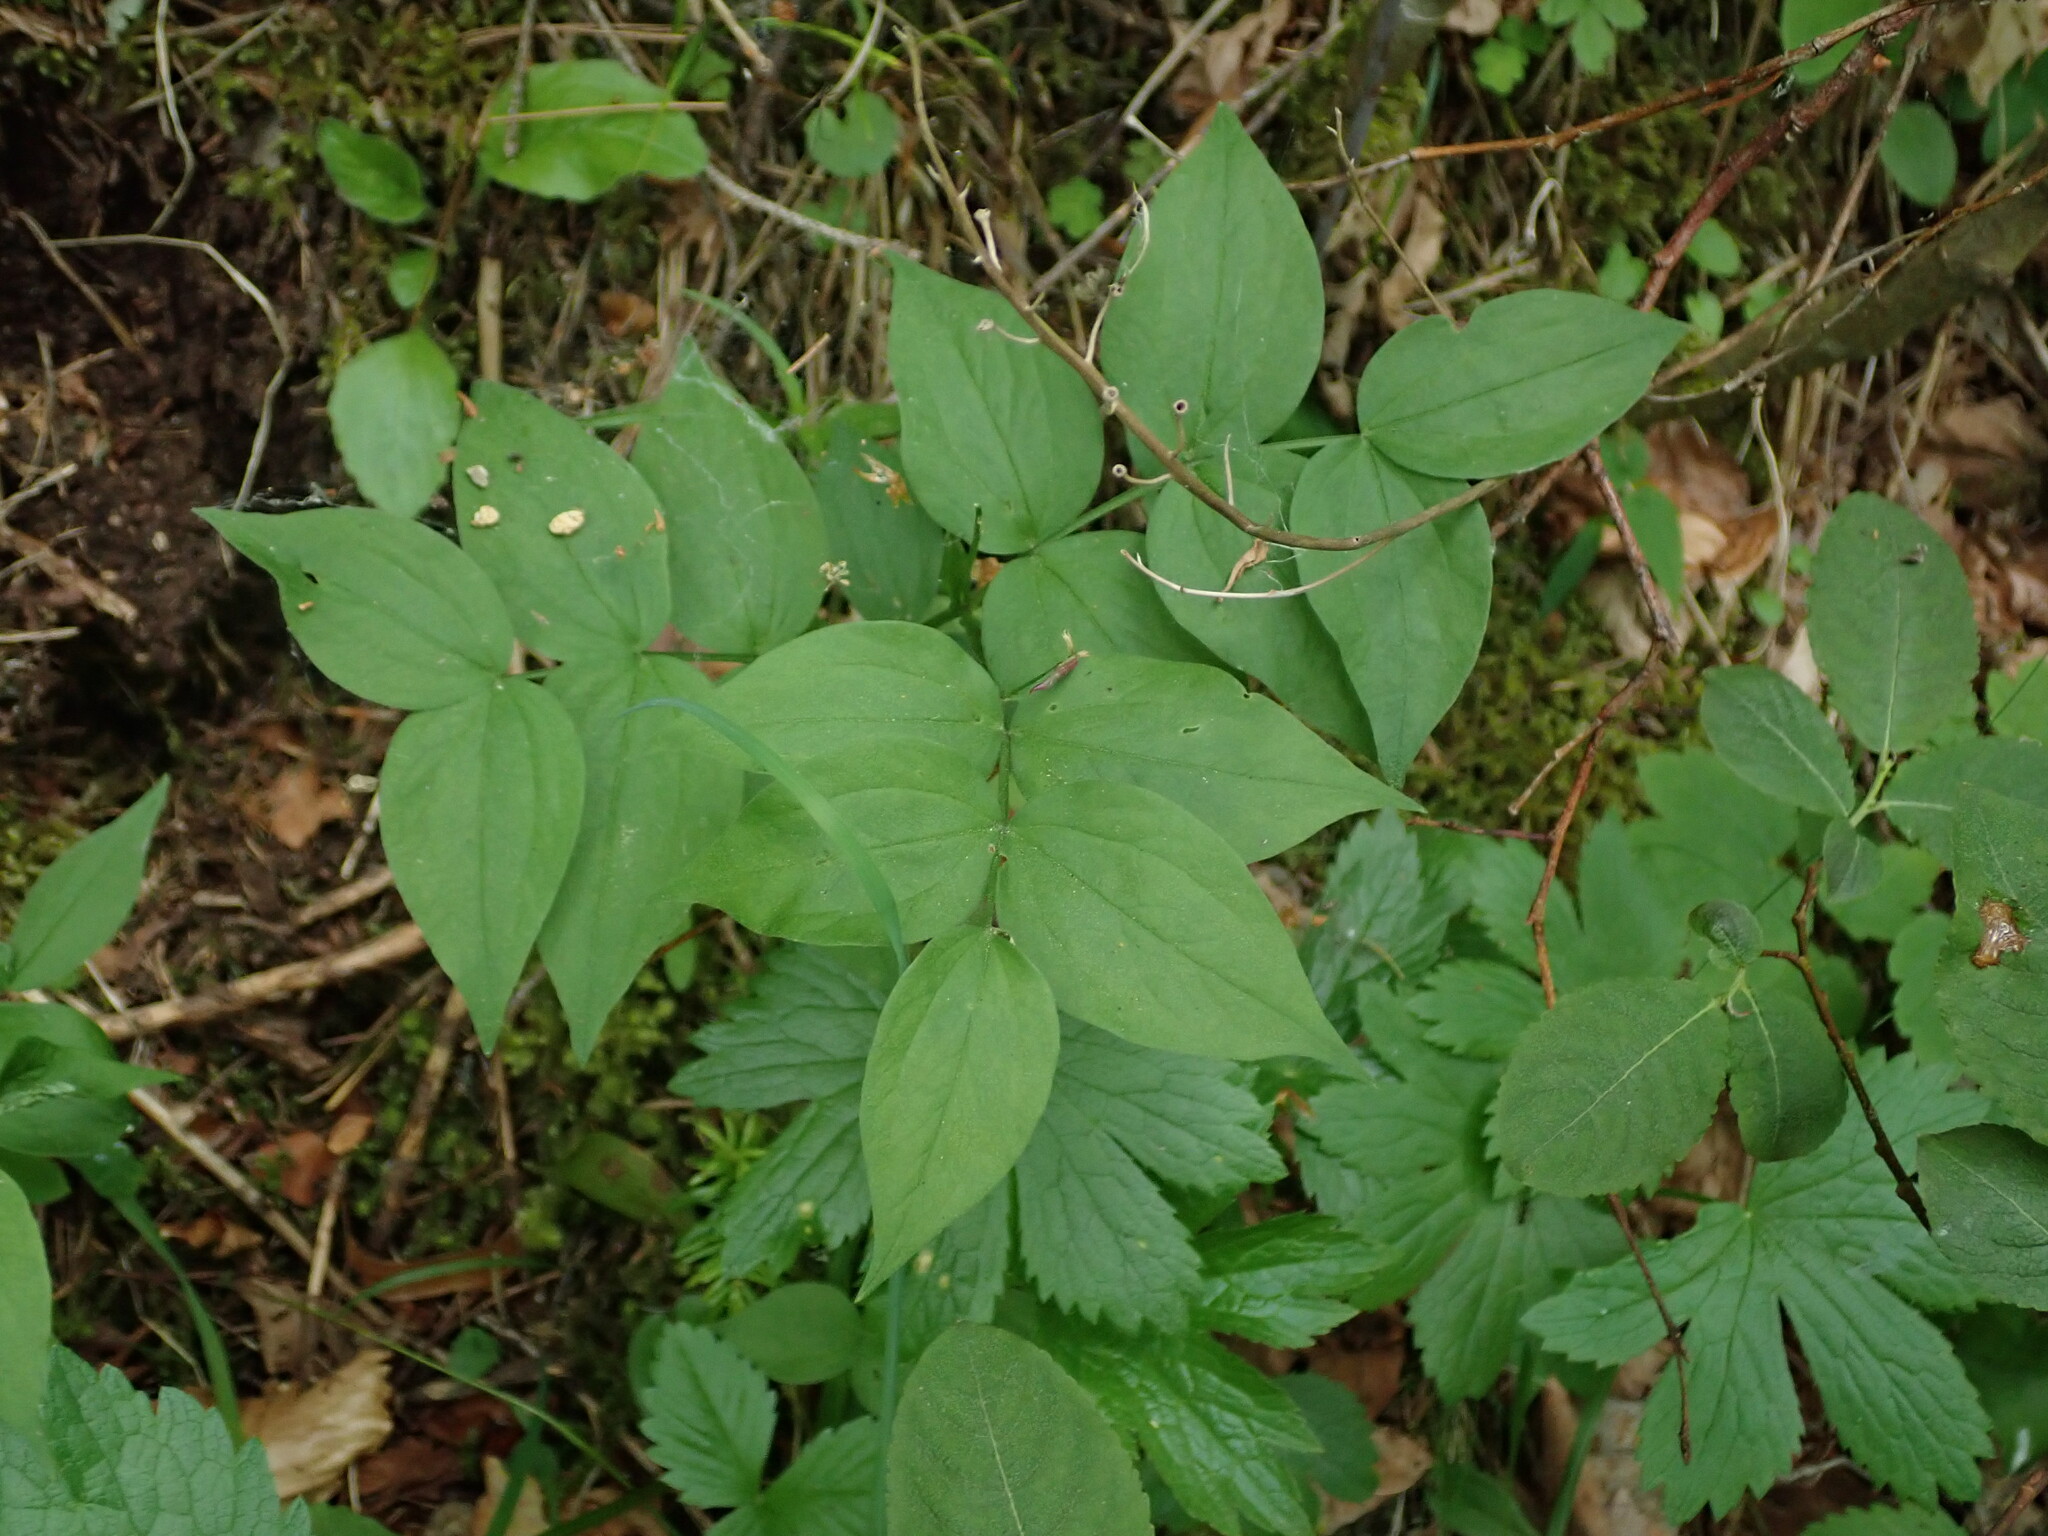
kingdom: Plantae
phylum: Tracheophyta
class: Magnoliopsida
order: Fabales
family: Fabaceae
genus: Lathyrus
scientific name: Lathyrus vernus
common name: Spring pea
